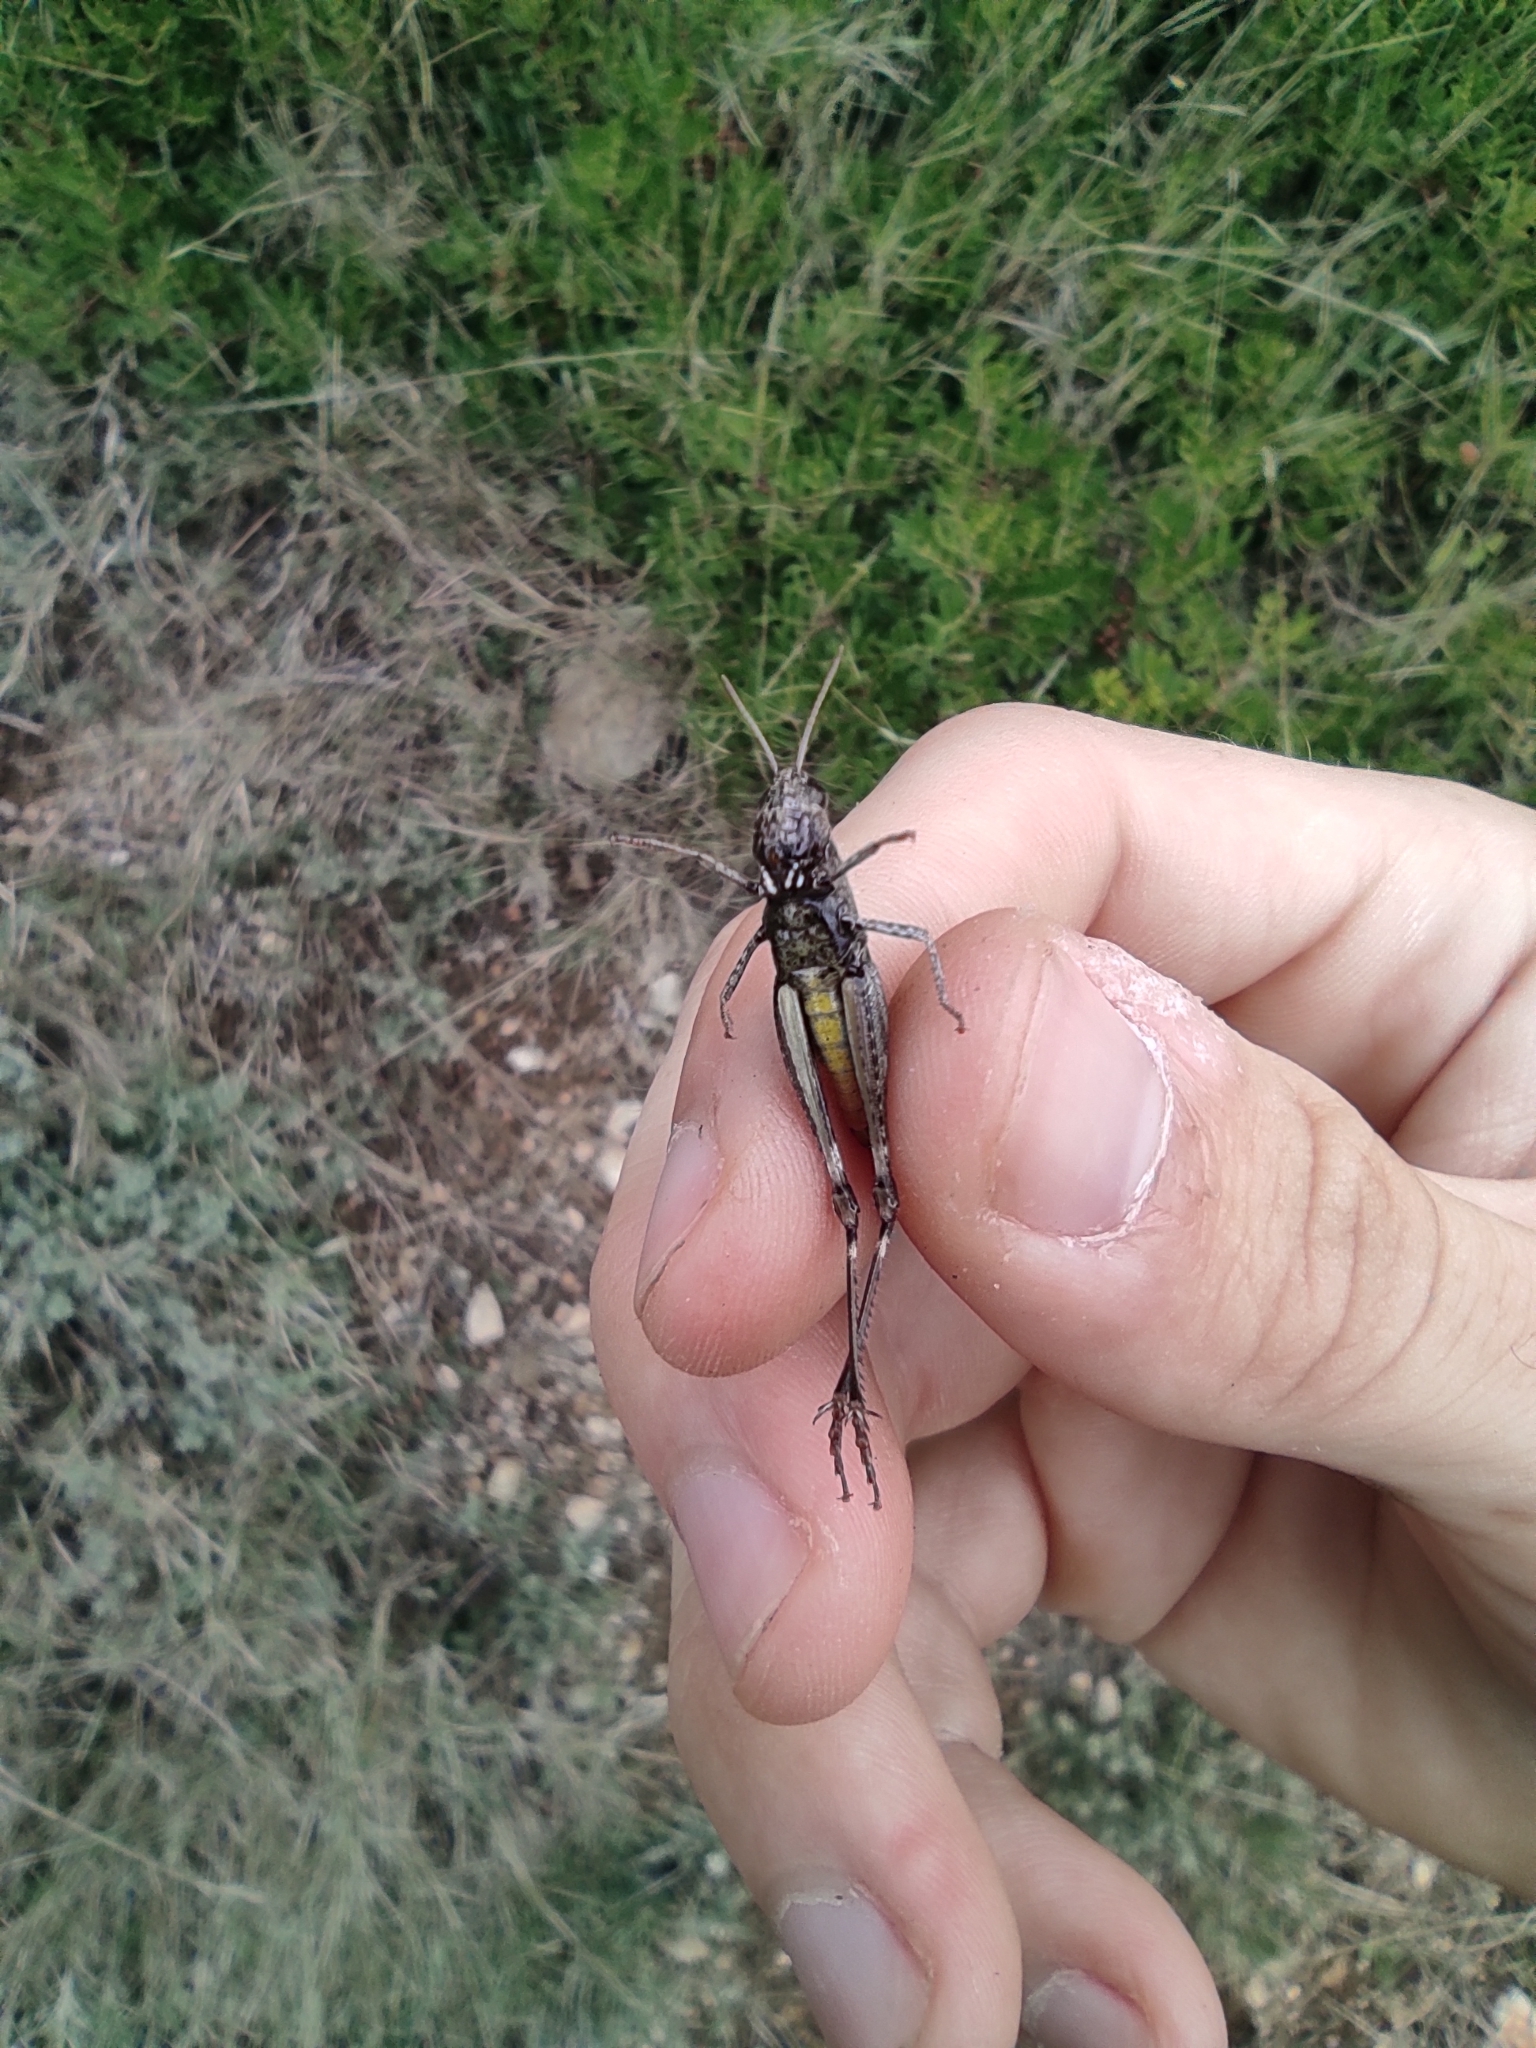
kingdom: Animalia
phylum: Arthropoda
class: Insecta
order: Orthoptera
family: Acrididae
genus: Omocestus
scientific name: Omocestus rufipes
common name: Woodland grasshopper
